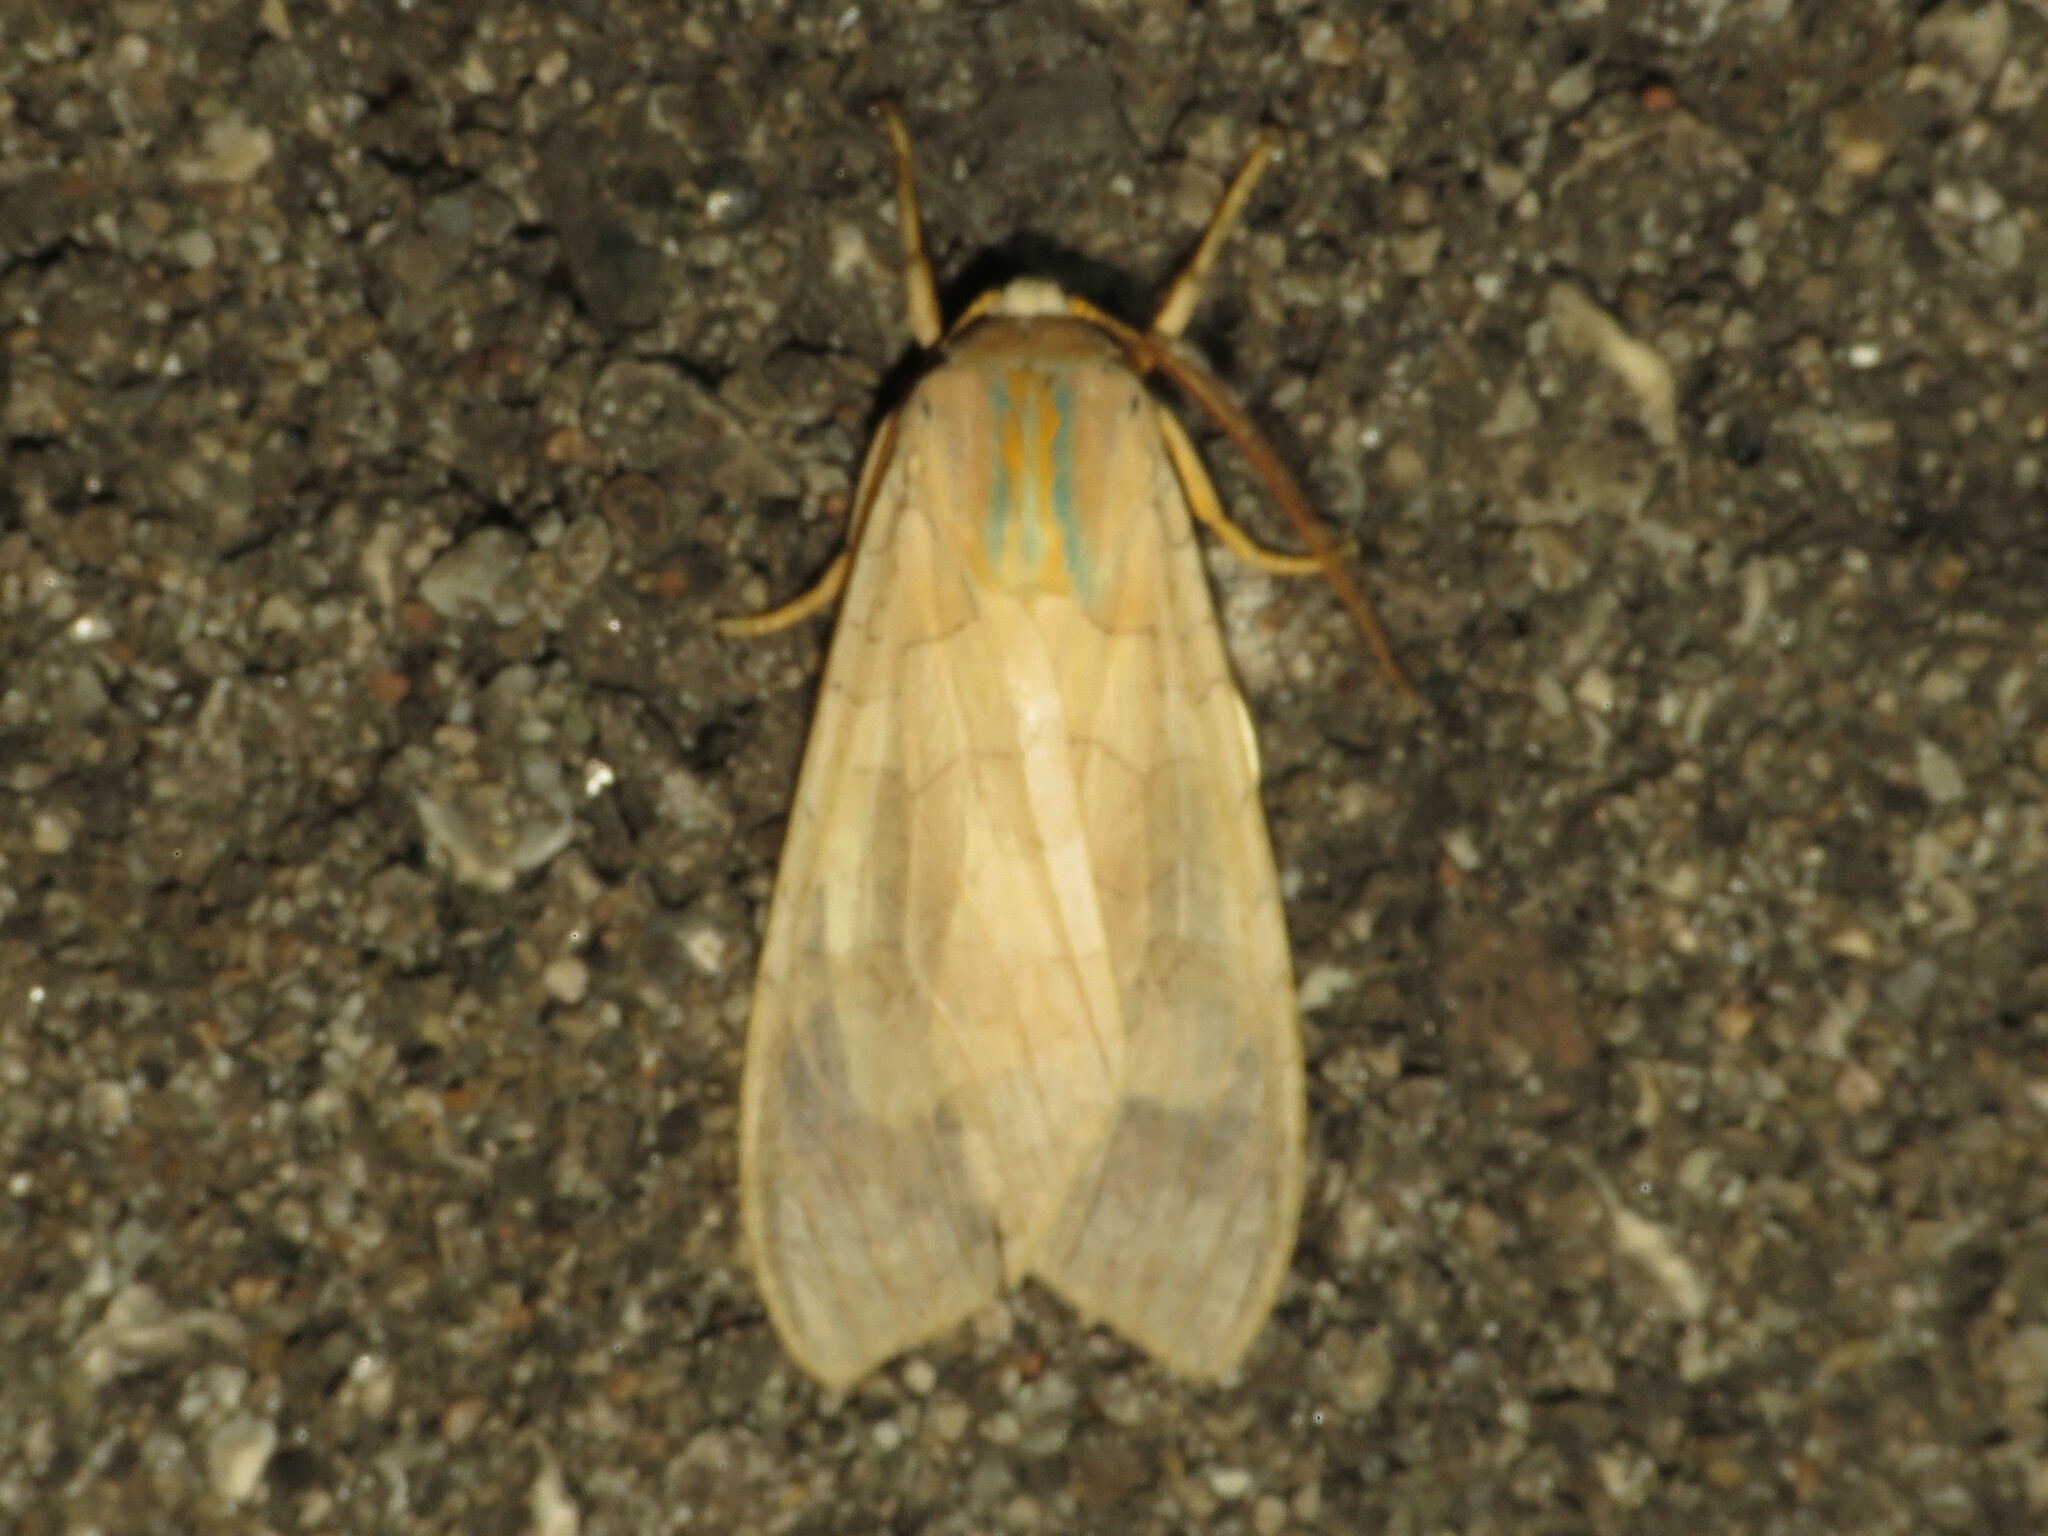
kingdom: Animalia
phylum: Arthropoda
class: Insecta
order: Lepidoptera
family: Erebidae
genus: Halysidota
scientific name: Halysidota tessellaris
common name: Banded tussock moth
